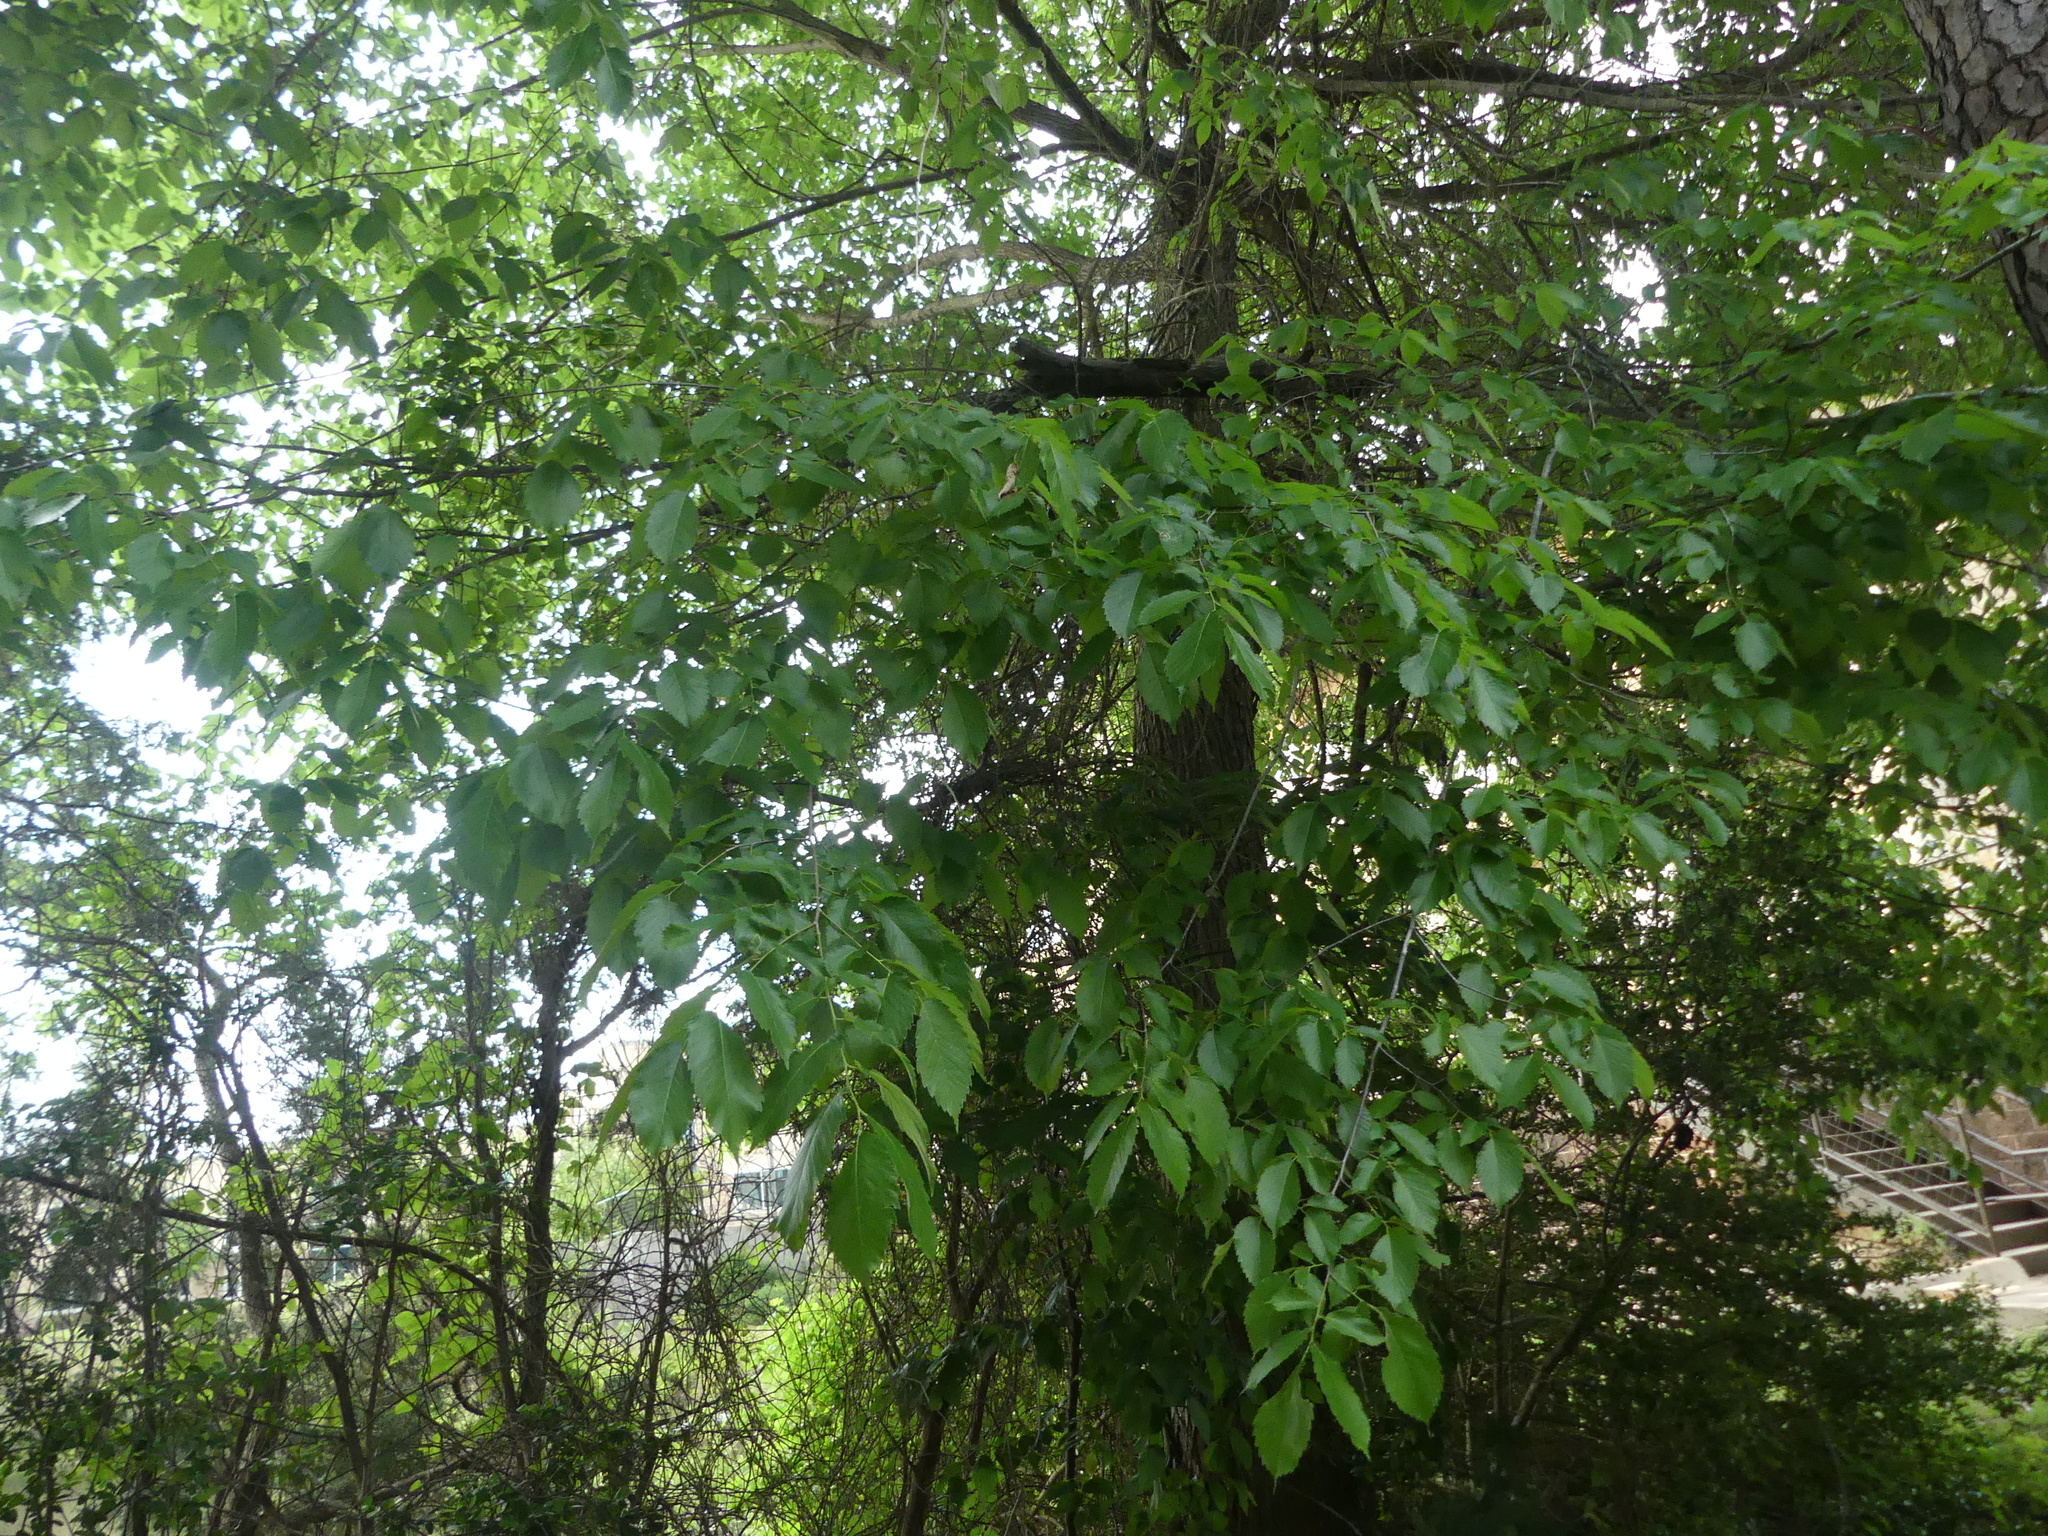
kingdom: Plantae
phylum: Tracheophyta
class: Magnoliopsida
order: Rosales
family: Ulmaceae
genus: Ulmus
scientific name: Ulmus americana
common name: American elm
